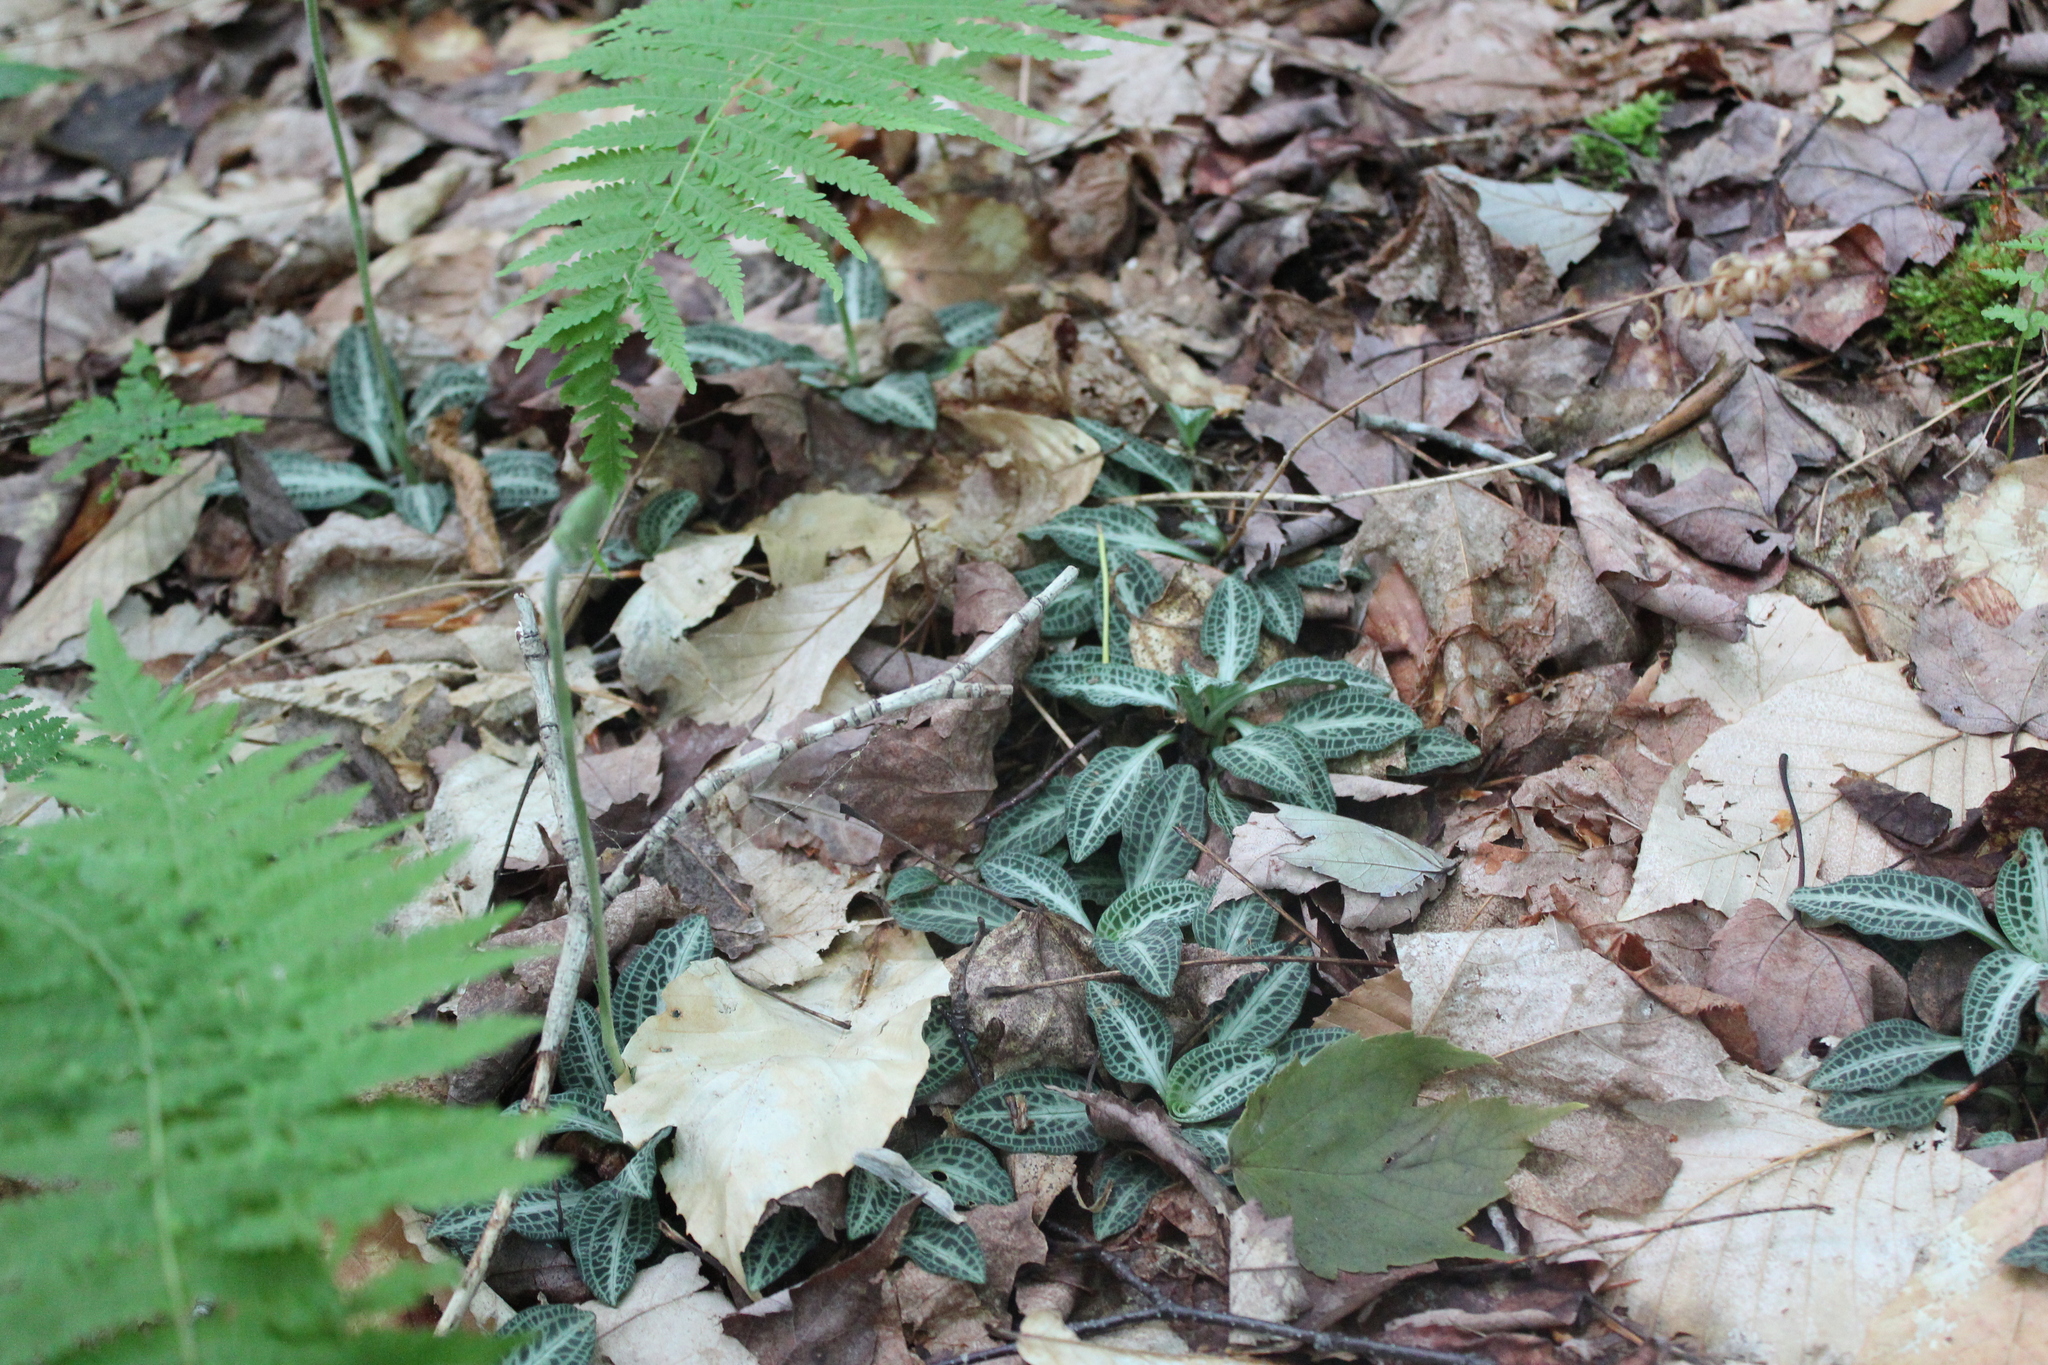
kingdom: Plantae
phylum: Tracheophyta
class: Liliopsida
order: Asparagales
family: Orchidaceae
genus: Goodyera
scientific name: Goodyera pubescens
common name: Downy rattlesnake-plantain
